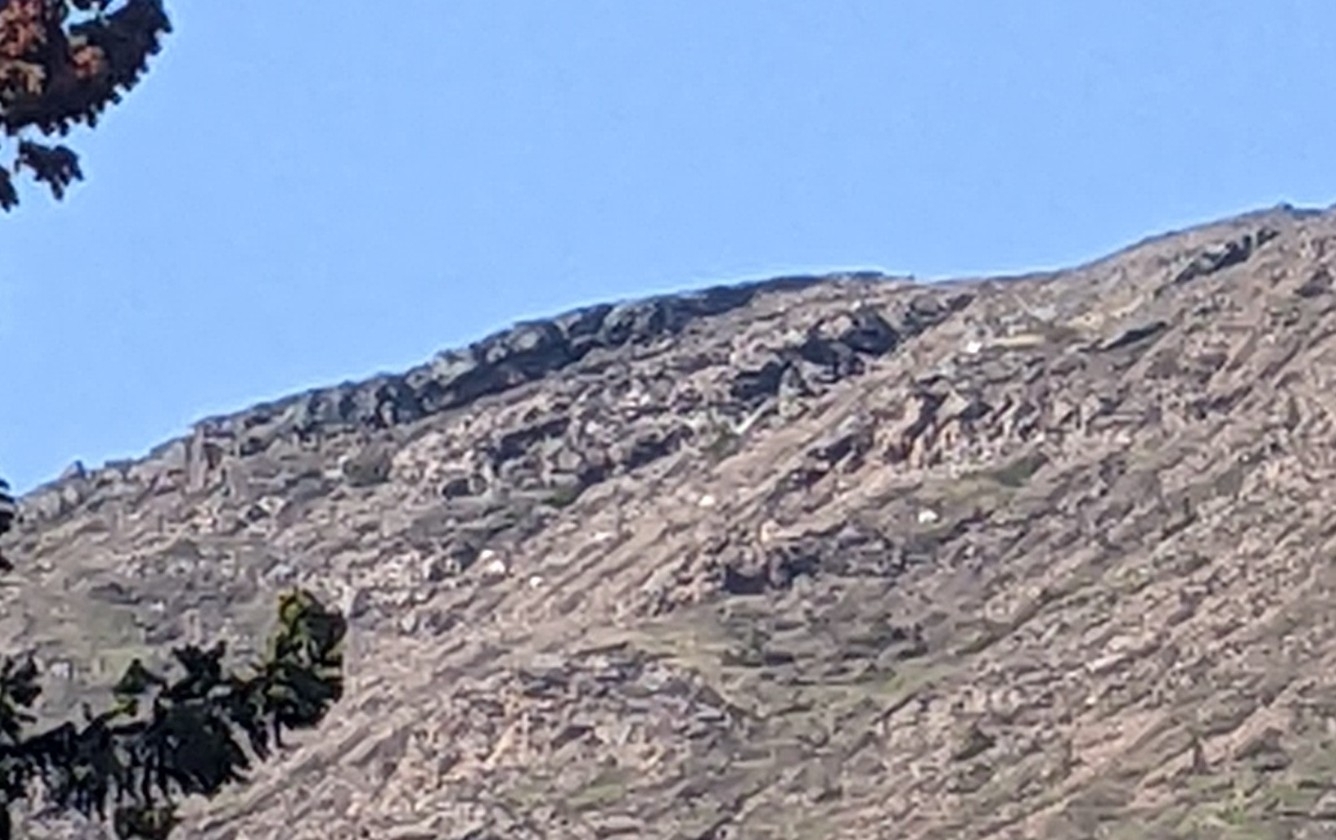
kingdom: Animalia
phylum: Chordata
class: Mammalia
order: Artiodactyla
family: Bovidae
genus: Oreamnos
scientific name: Oreamnos americanus
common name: Mountain goat
